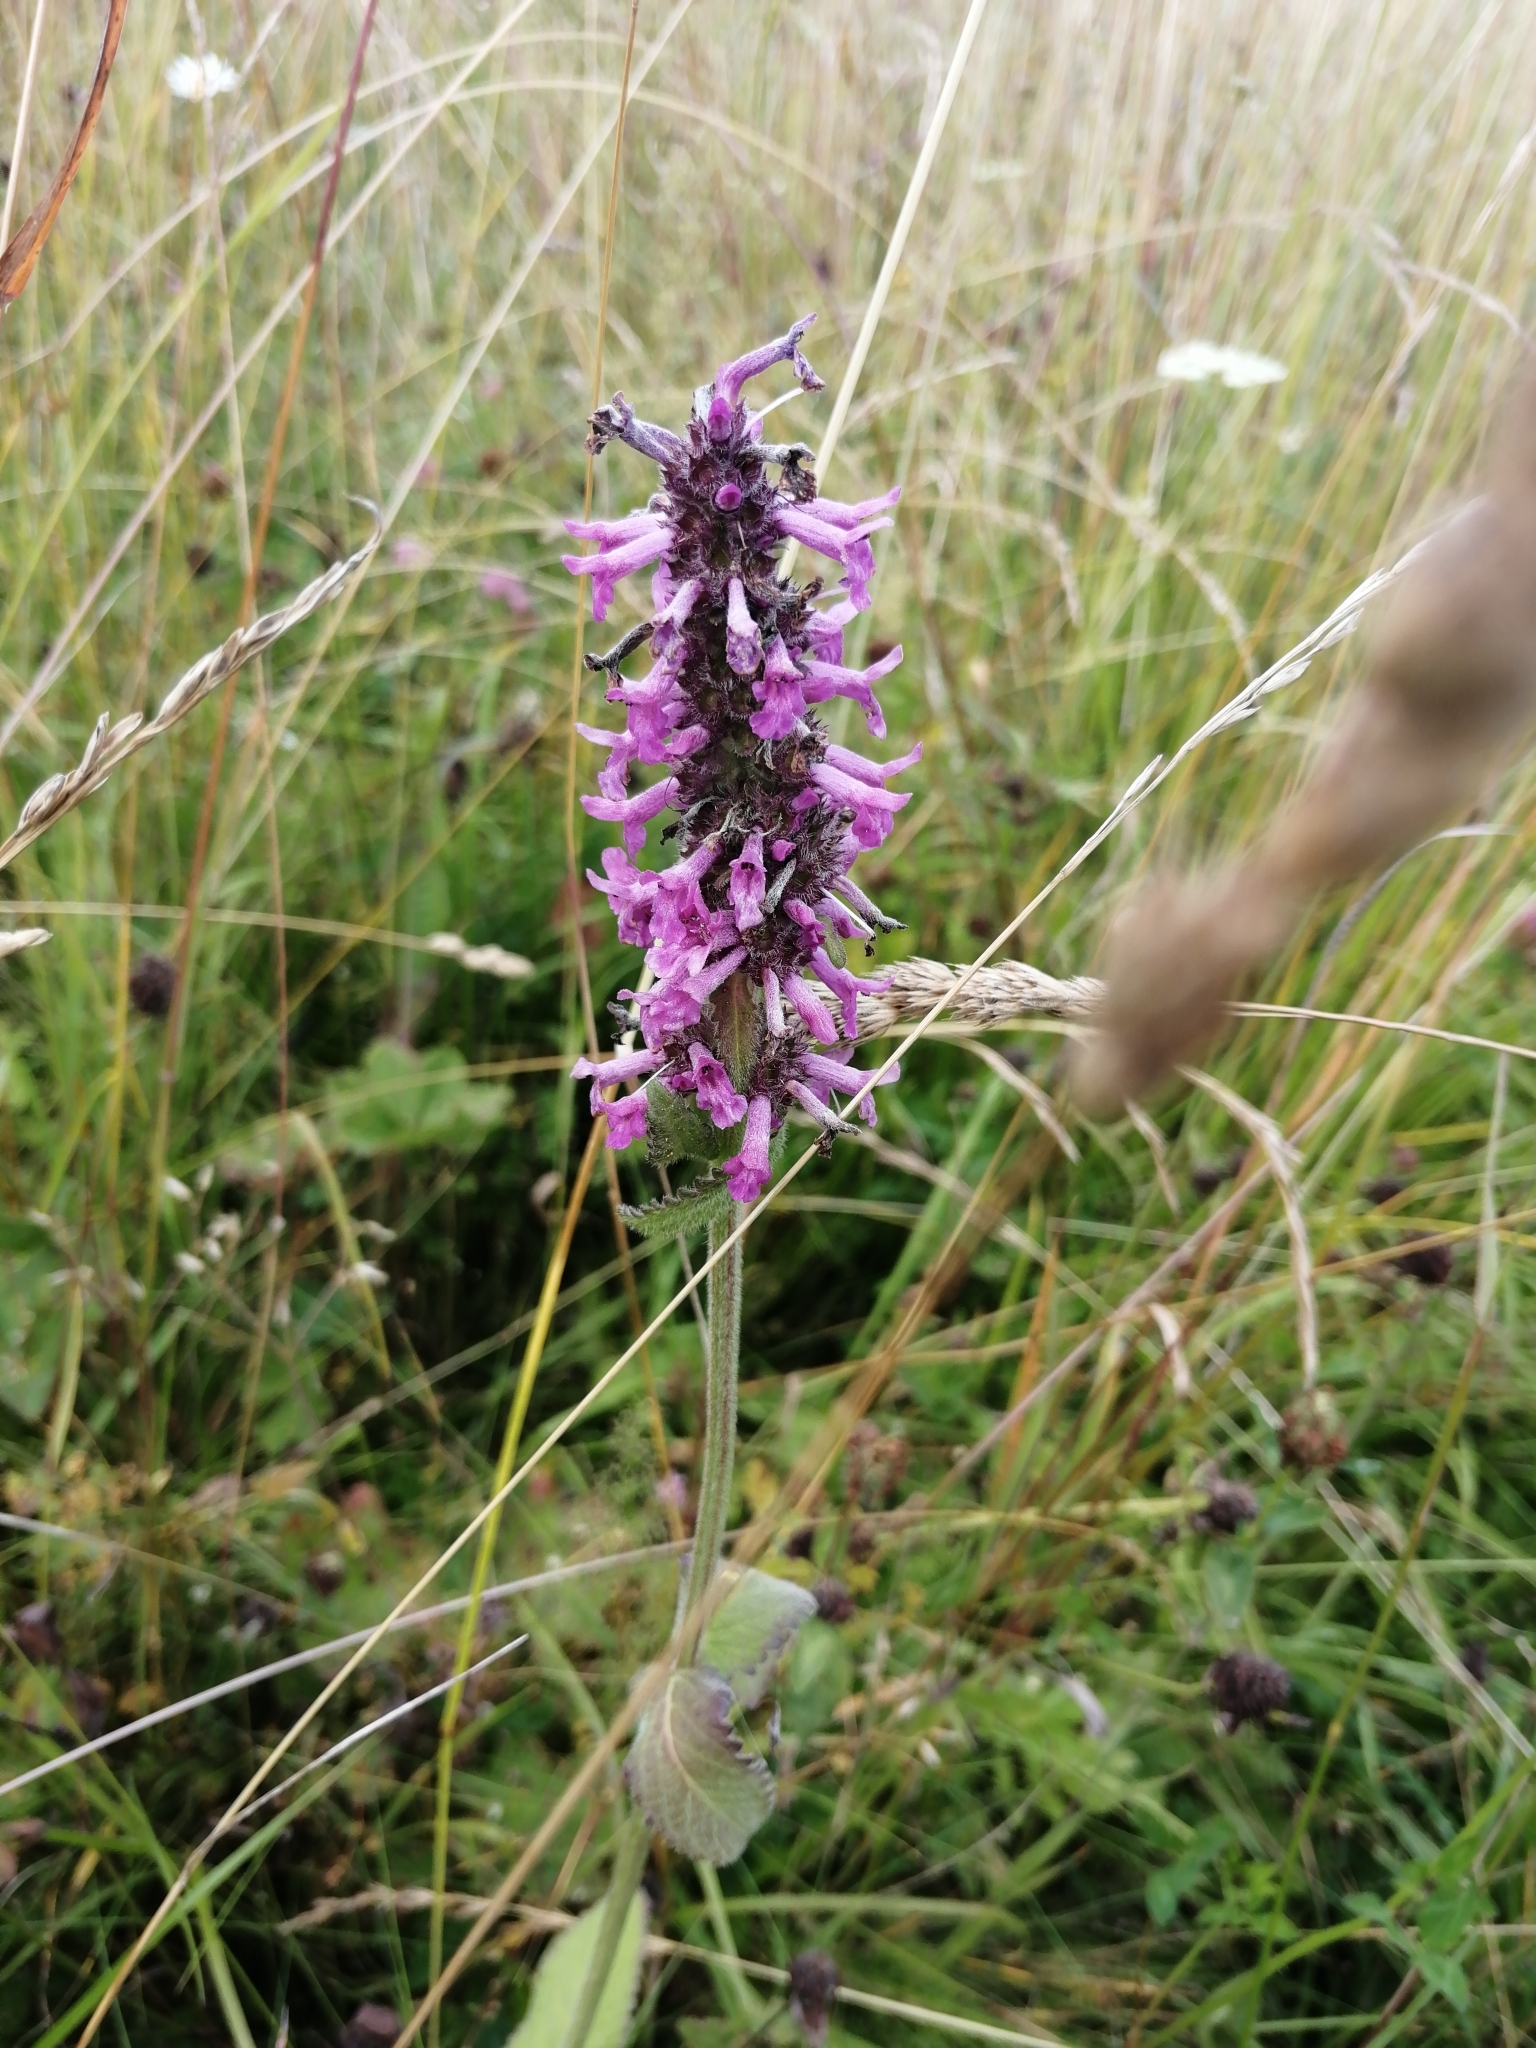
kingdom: Plantae
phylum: Tracheophyta
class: Magnoliopsida
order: Lamiales
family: Lamiaceae
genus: Betonica
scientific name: Betonica officinalis
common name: Bishop's-wort
